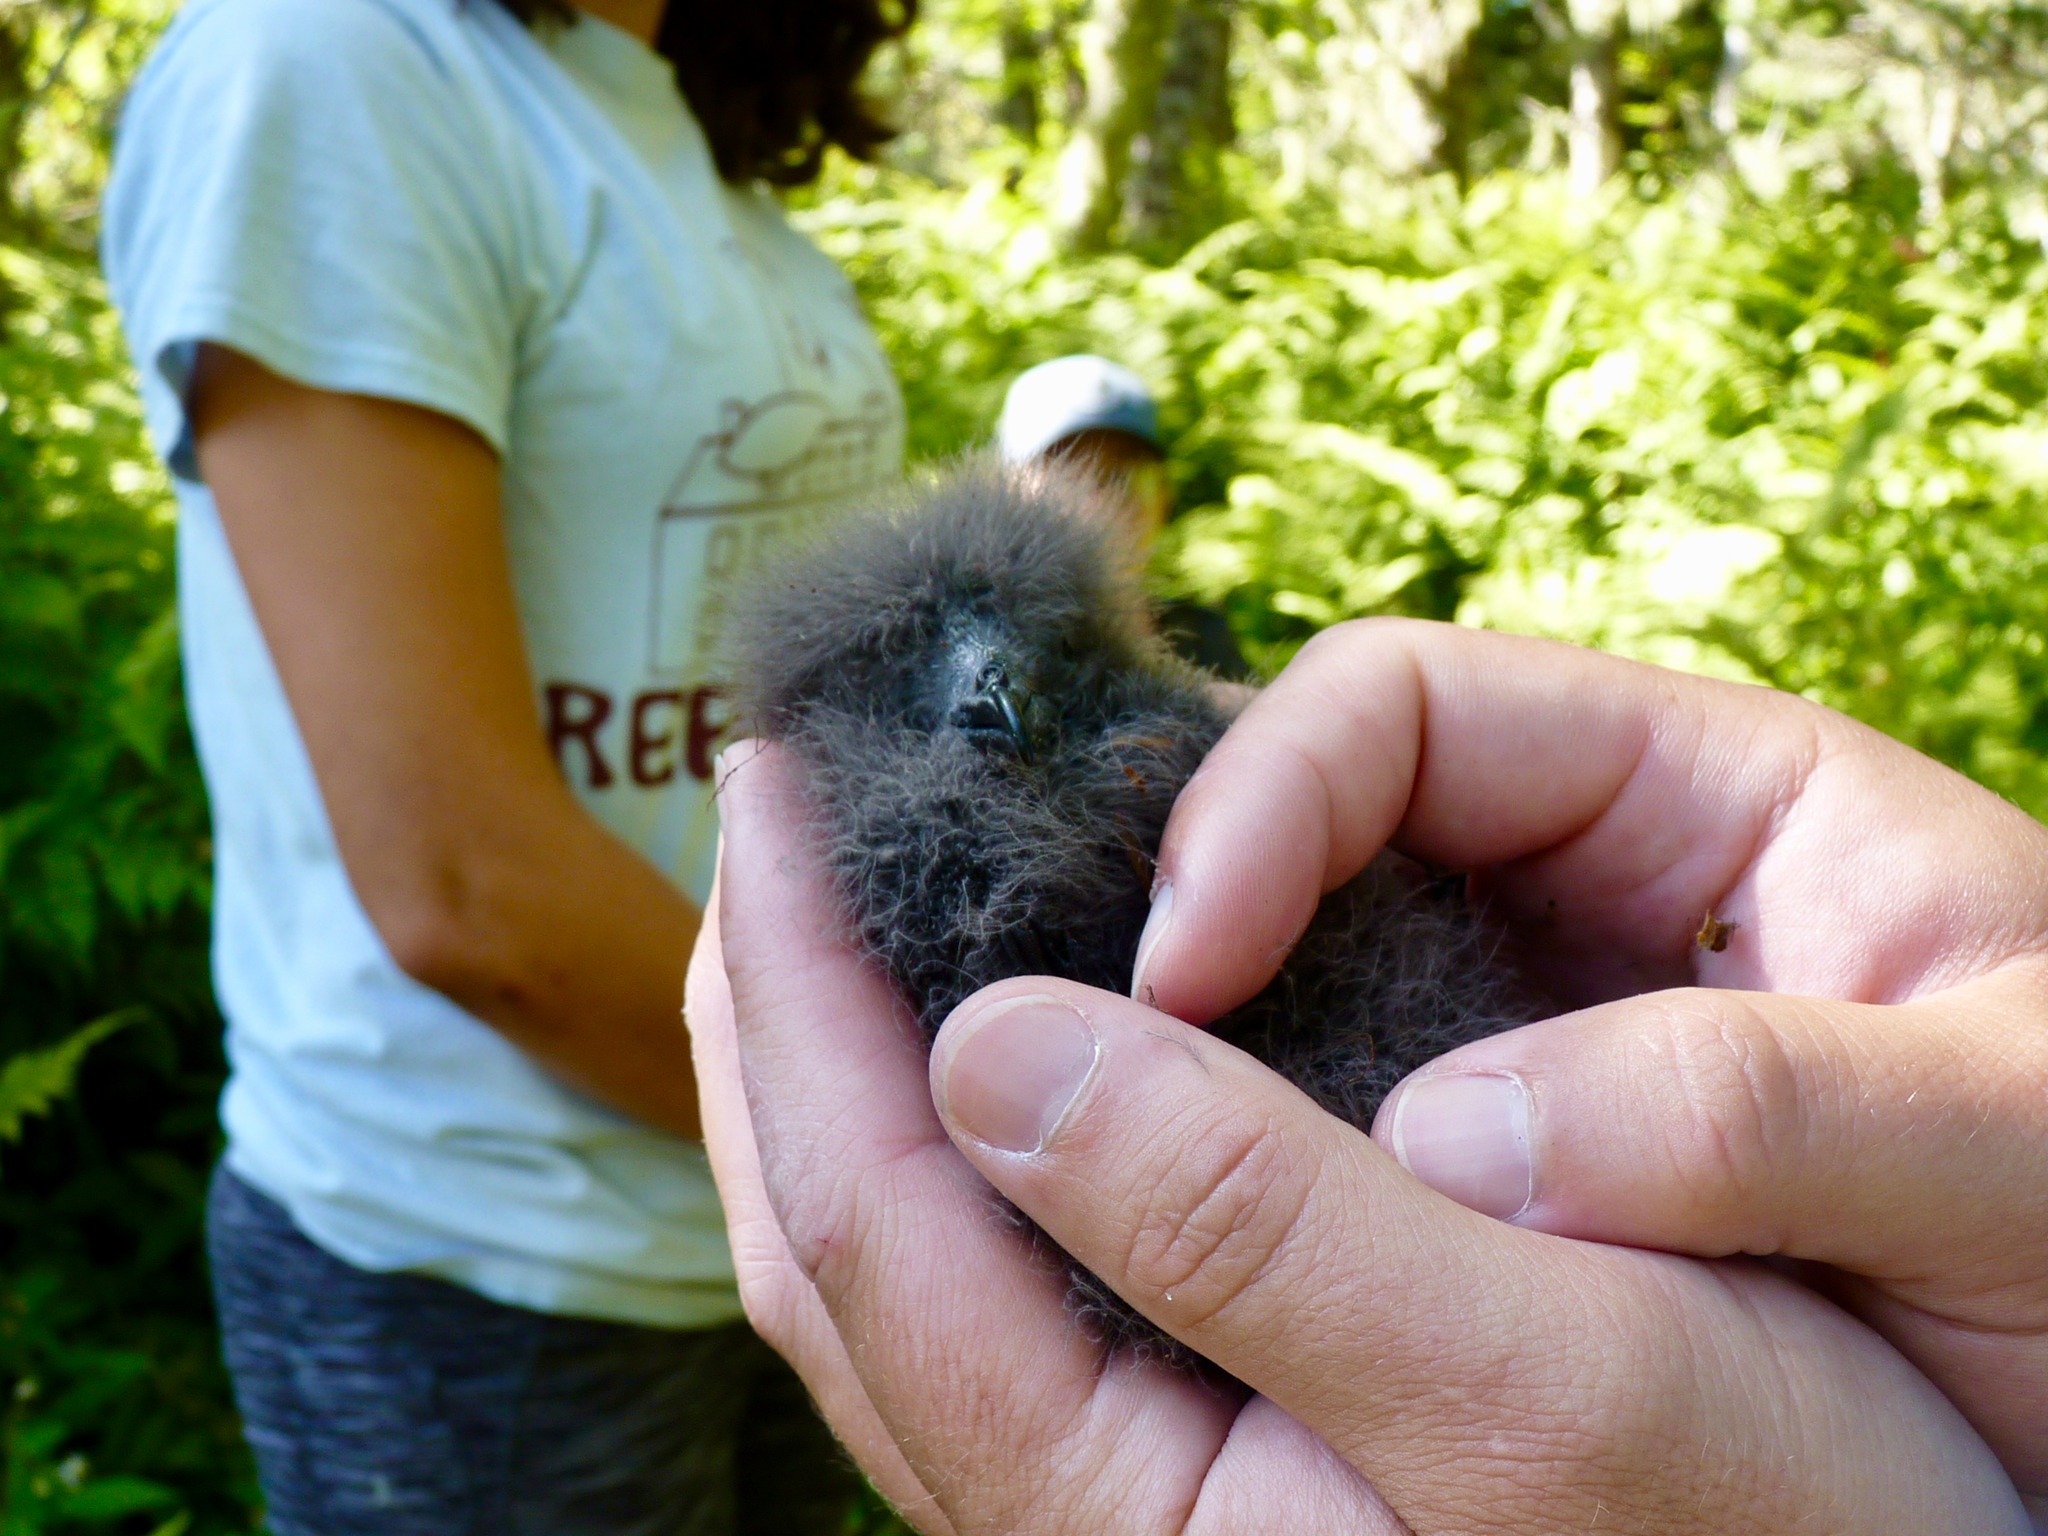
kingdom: Animalia
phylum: Chordata
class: Aves
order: Procellariiformes
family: Hydrobatidae
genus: Oceanodroma
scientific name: Oceanodroma leucorhoa
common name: Leach's storm-petrel
